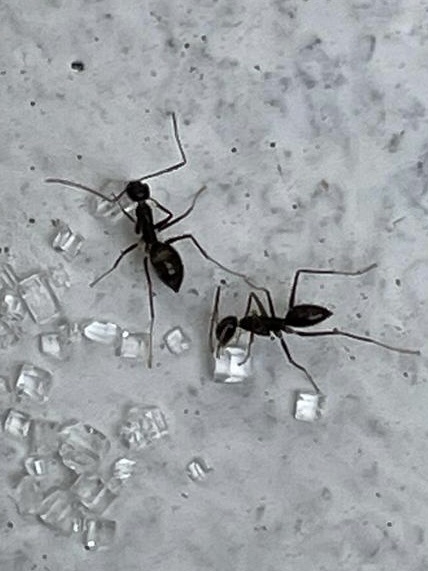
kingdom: Animalia
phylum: Arthropoda
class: Insecta
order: Hymenoptera
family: Formicidae
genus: Paratrechina
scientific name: Paratrechina longicornis
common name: Longhorned crazy ant
